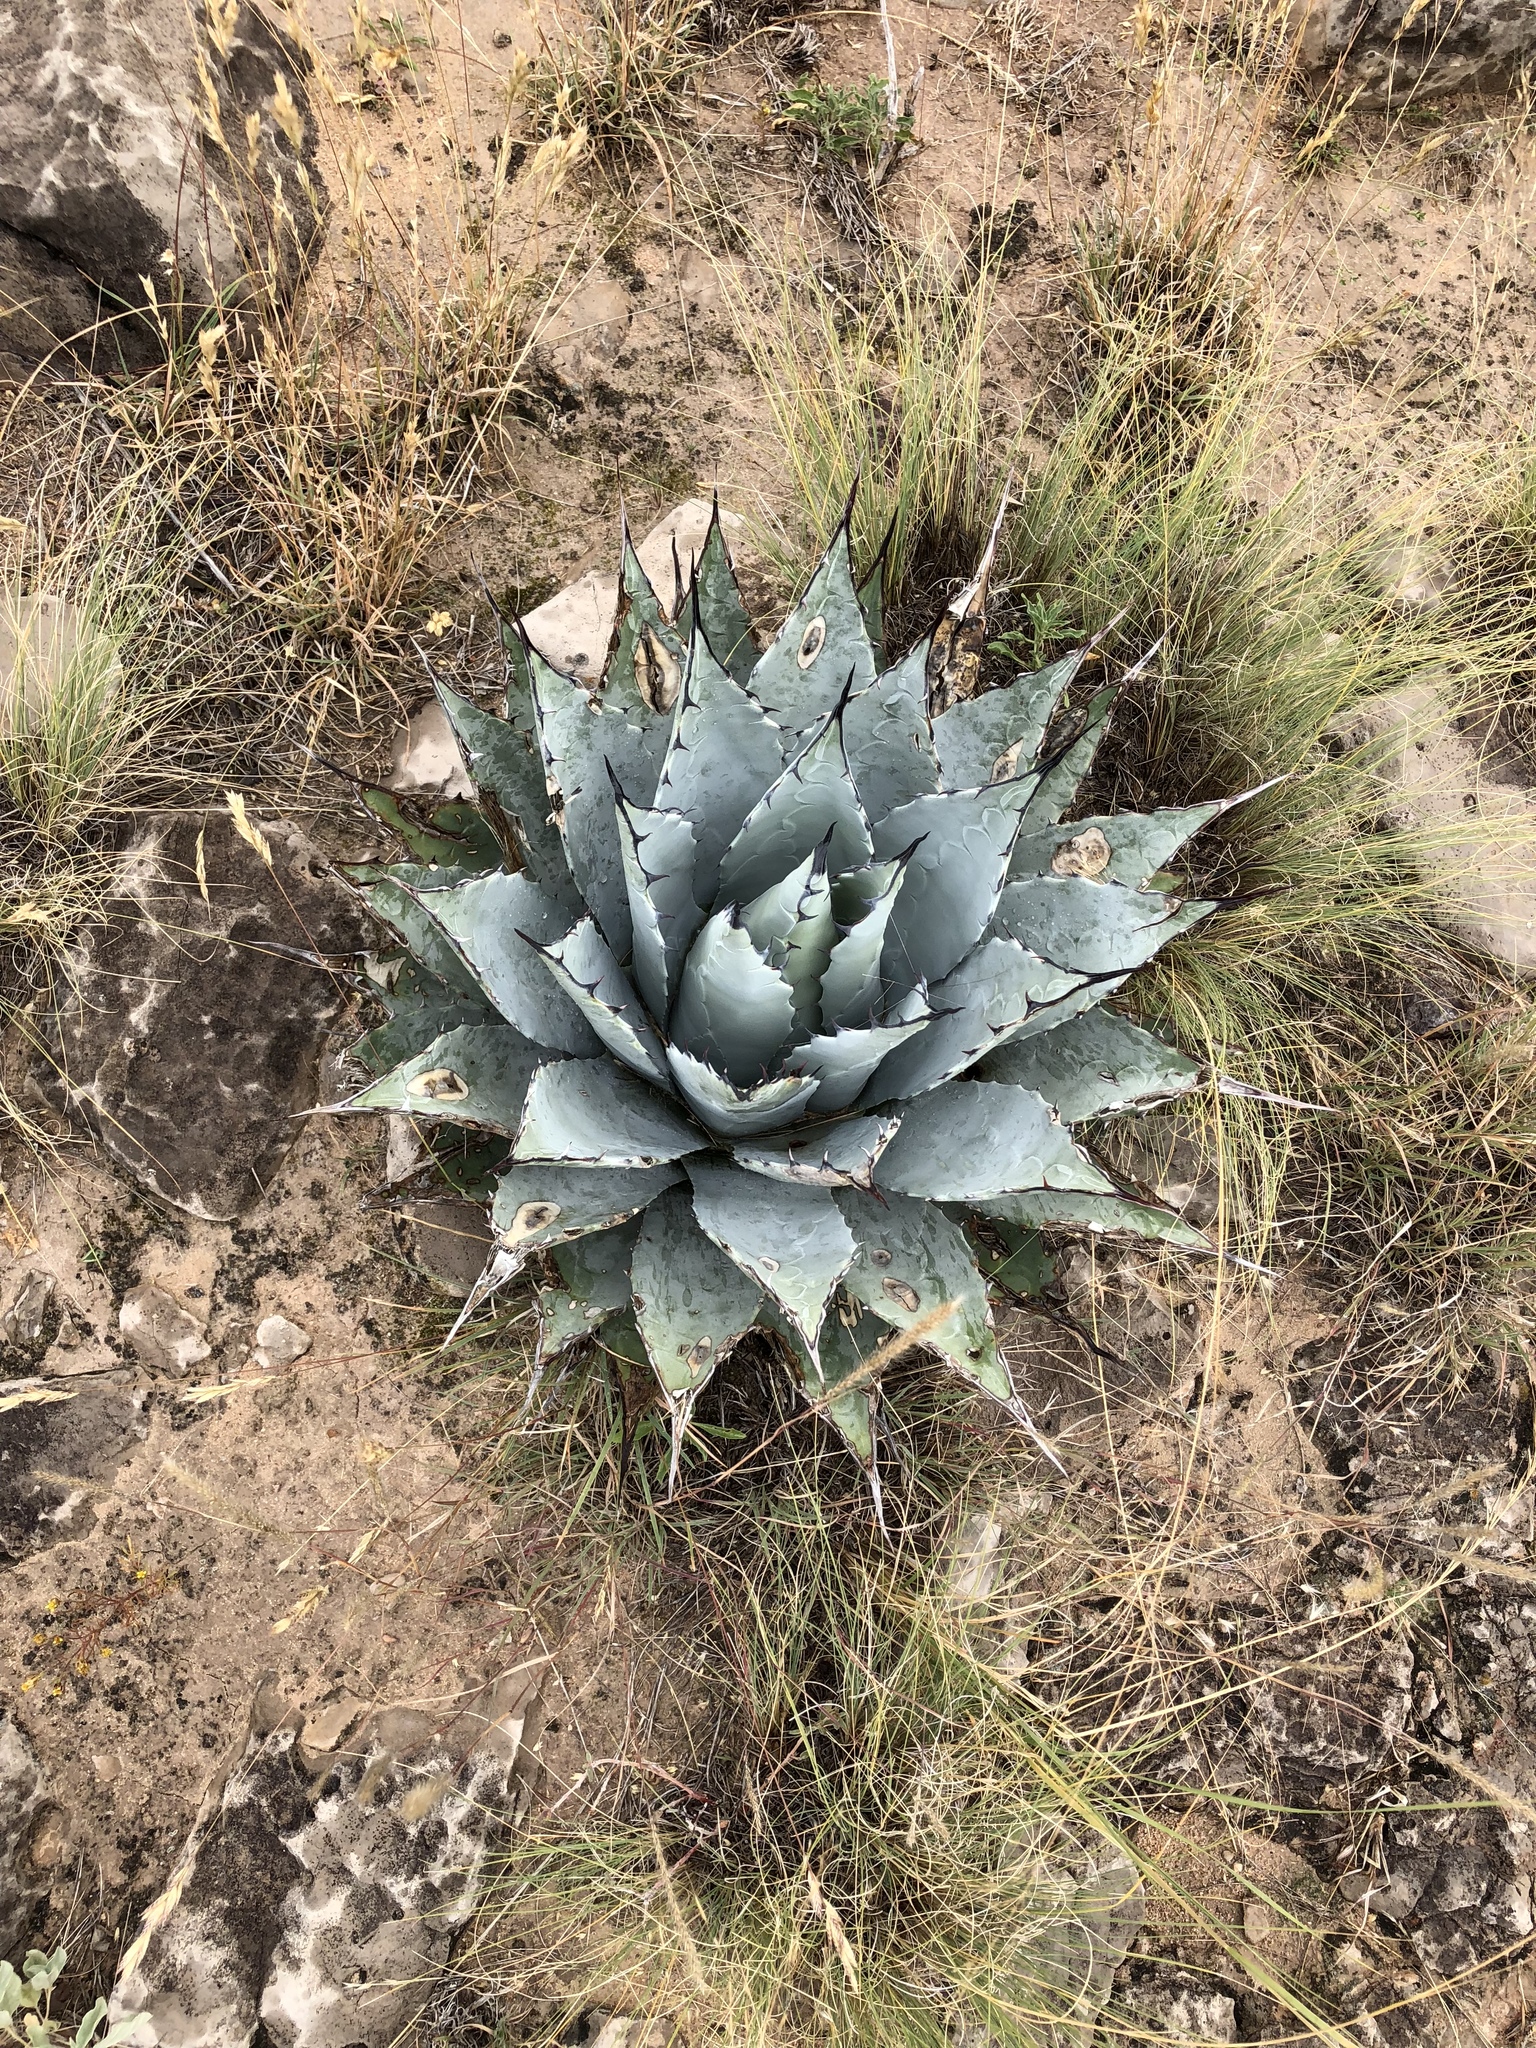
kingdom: Plantae
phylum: Tracheophyta
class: Liliopsida
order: Asparagales
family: Asparagaceae
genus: Agave
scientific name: Agave parryi
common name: Parry's agave
